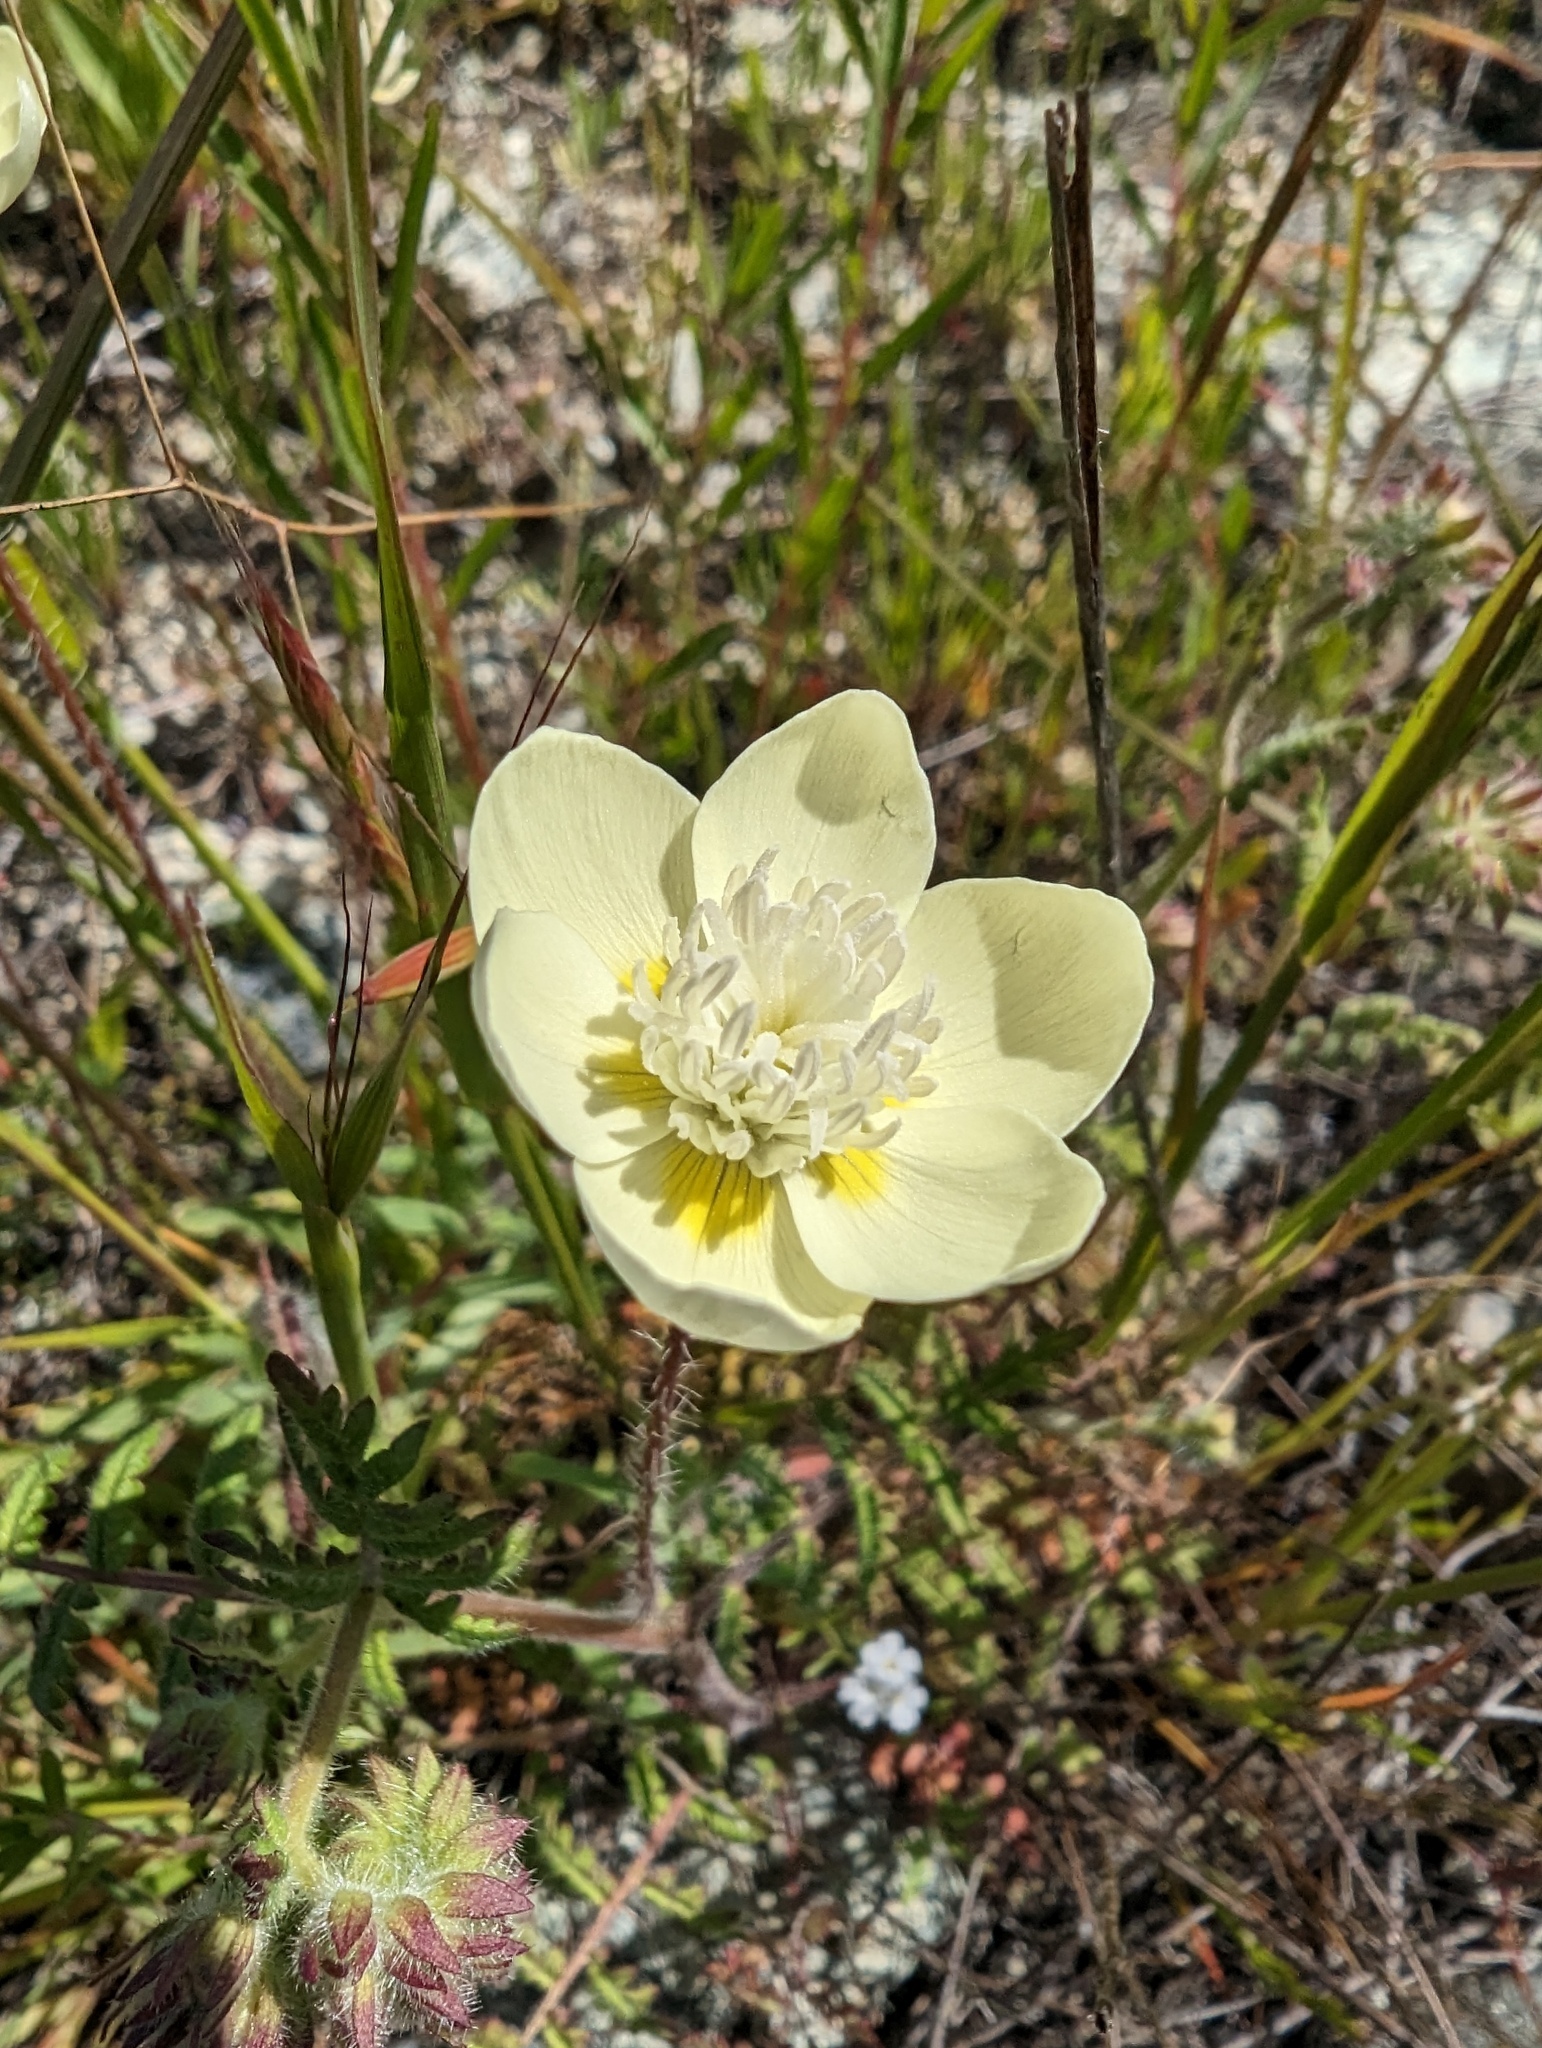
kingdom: Plantae
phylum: Tracheophyta
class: Magnoliopsida
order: Ranunculales
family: Papaveraceae
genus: Platystemon
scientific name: Platystemon californicus
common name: Cream-cups
